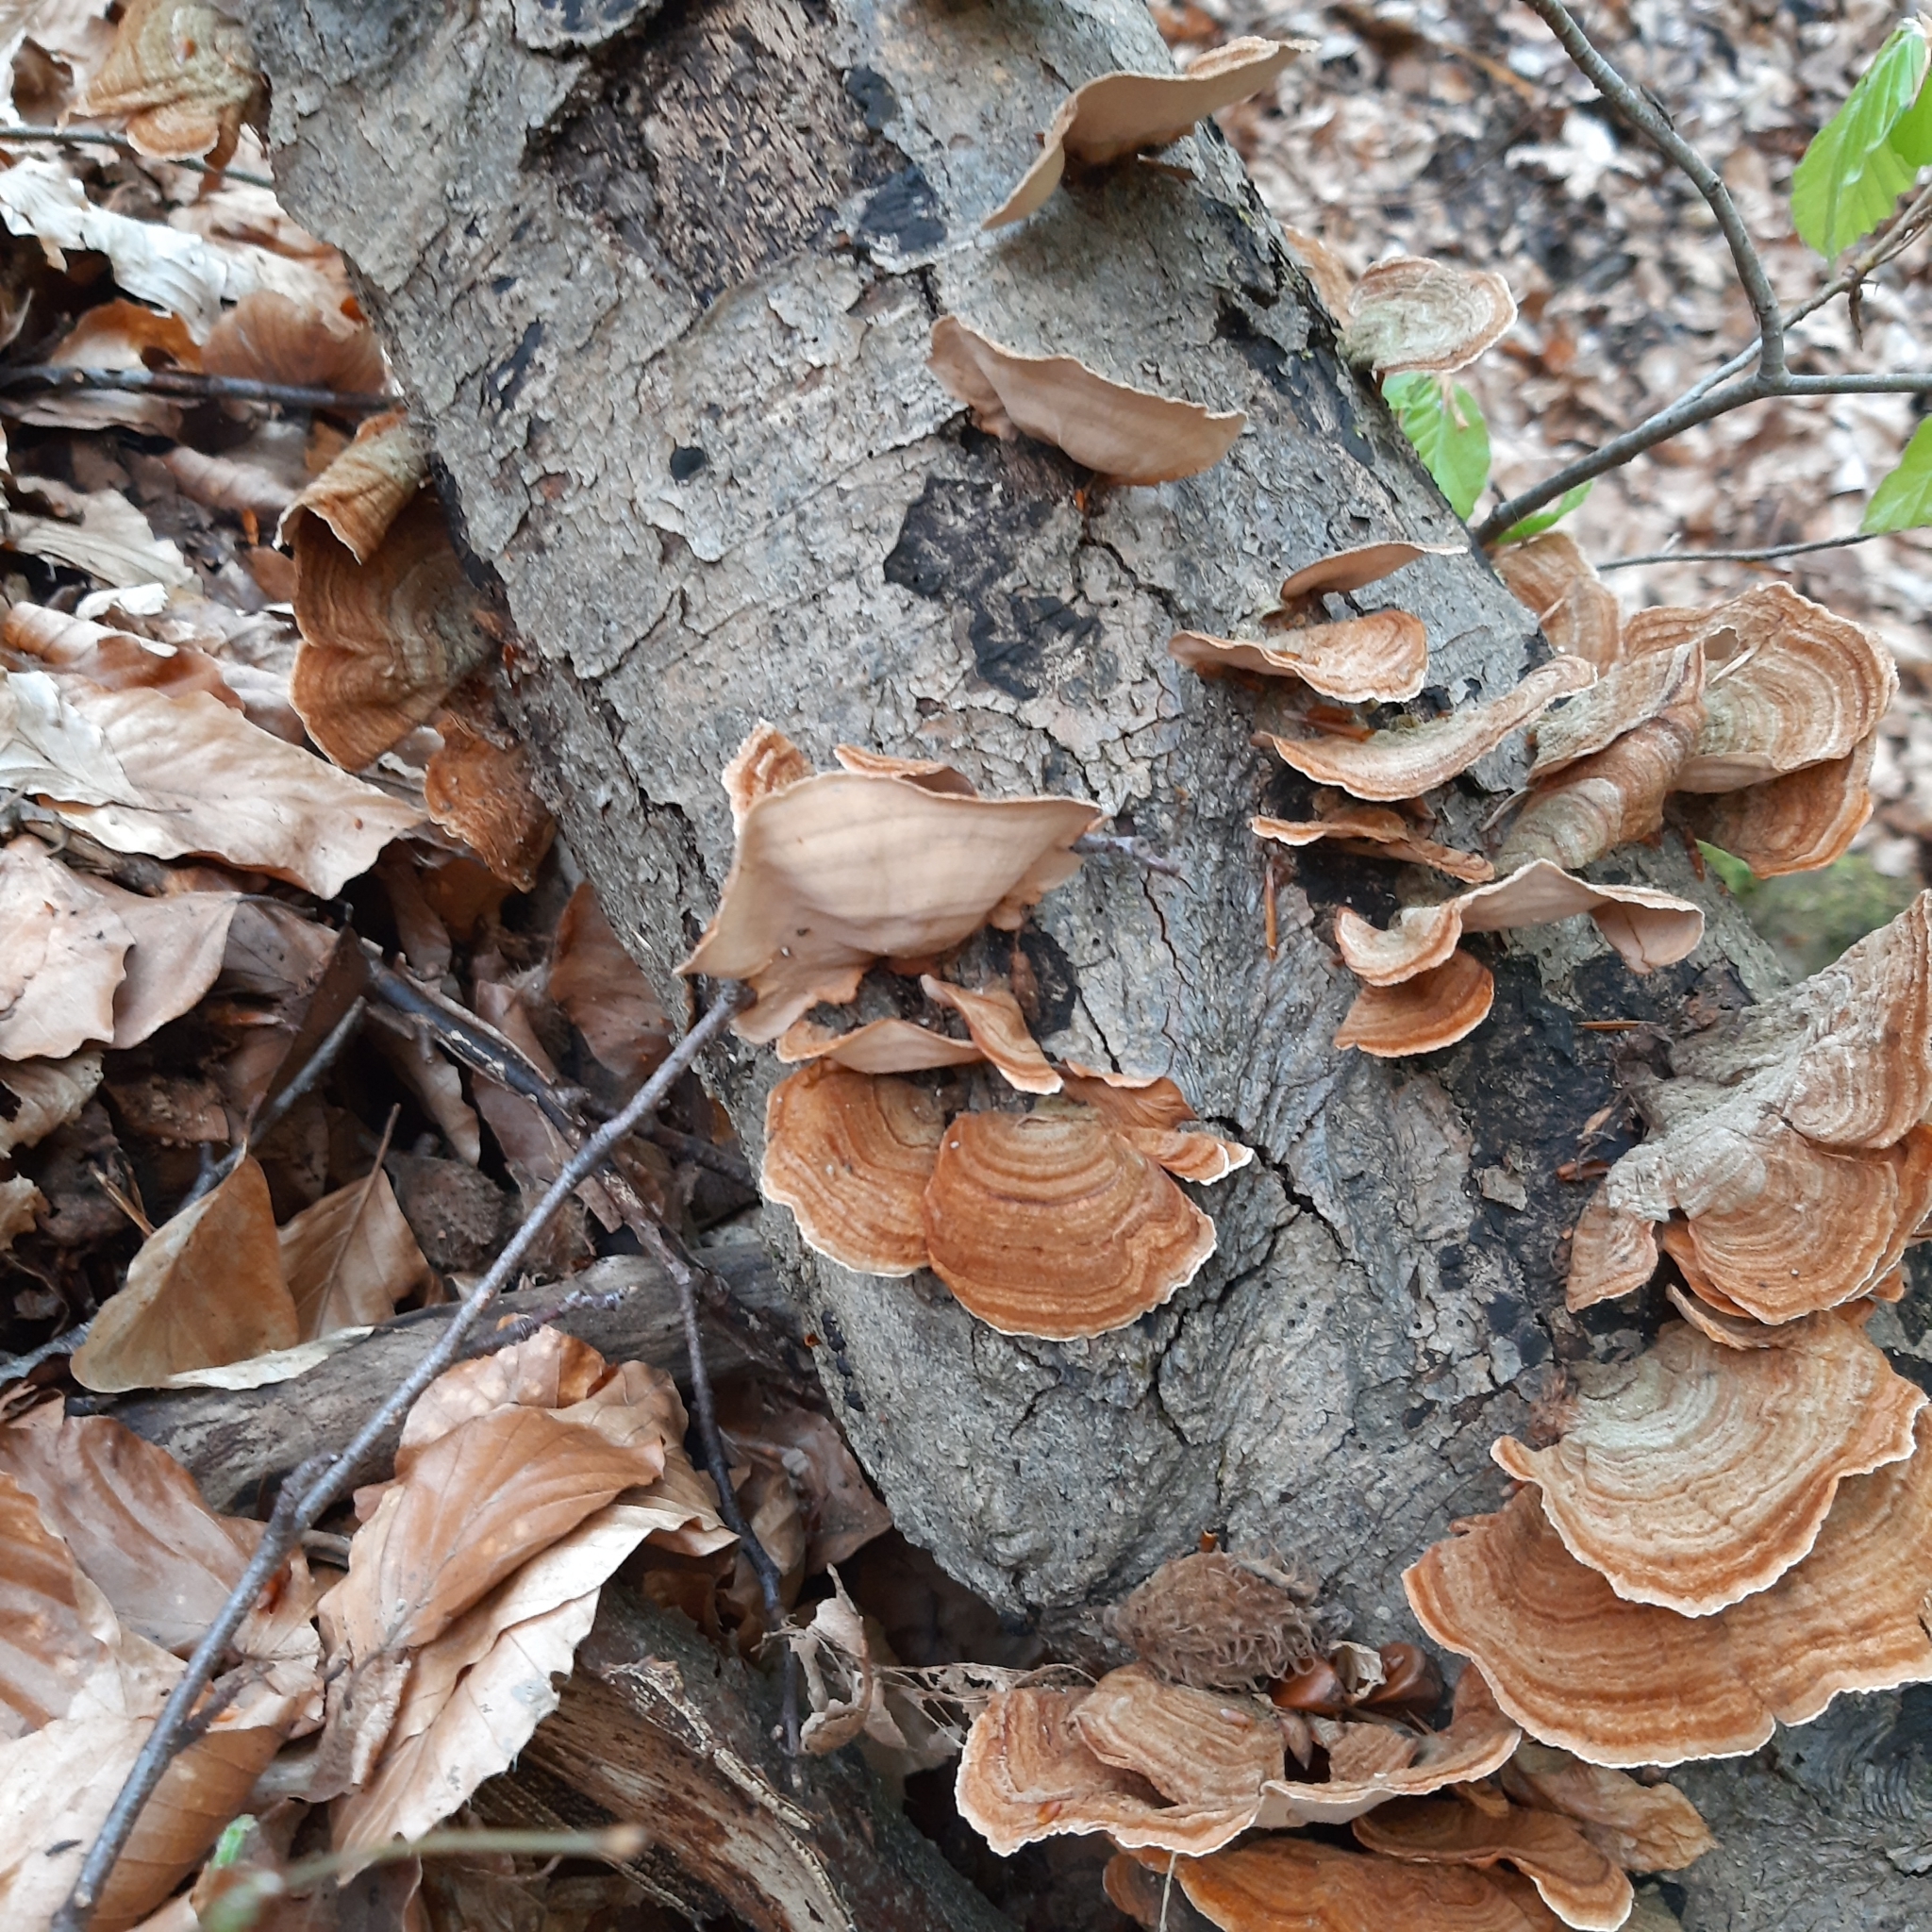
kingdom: Fungi
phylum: Basidiomycota
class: Agaricomycetes
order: Russulales
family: Stereaceae
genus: Stereum
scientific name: Stereum subtomentosum
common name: Yellowing curtain crust
